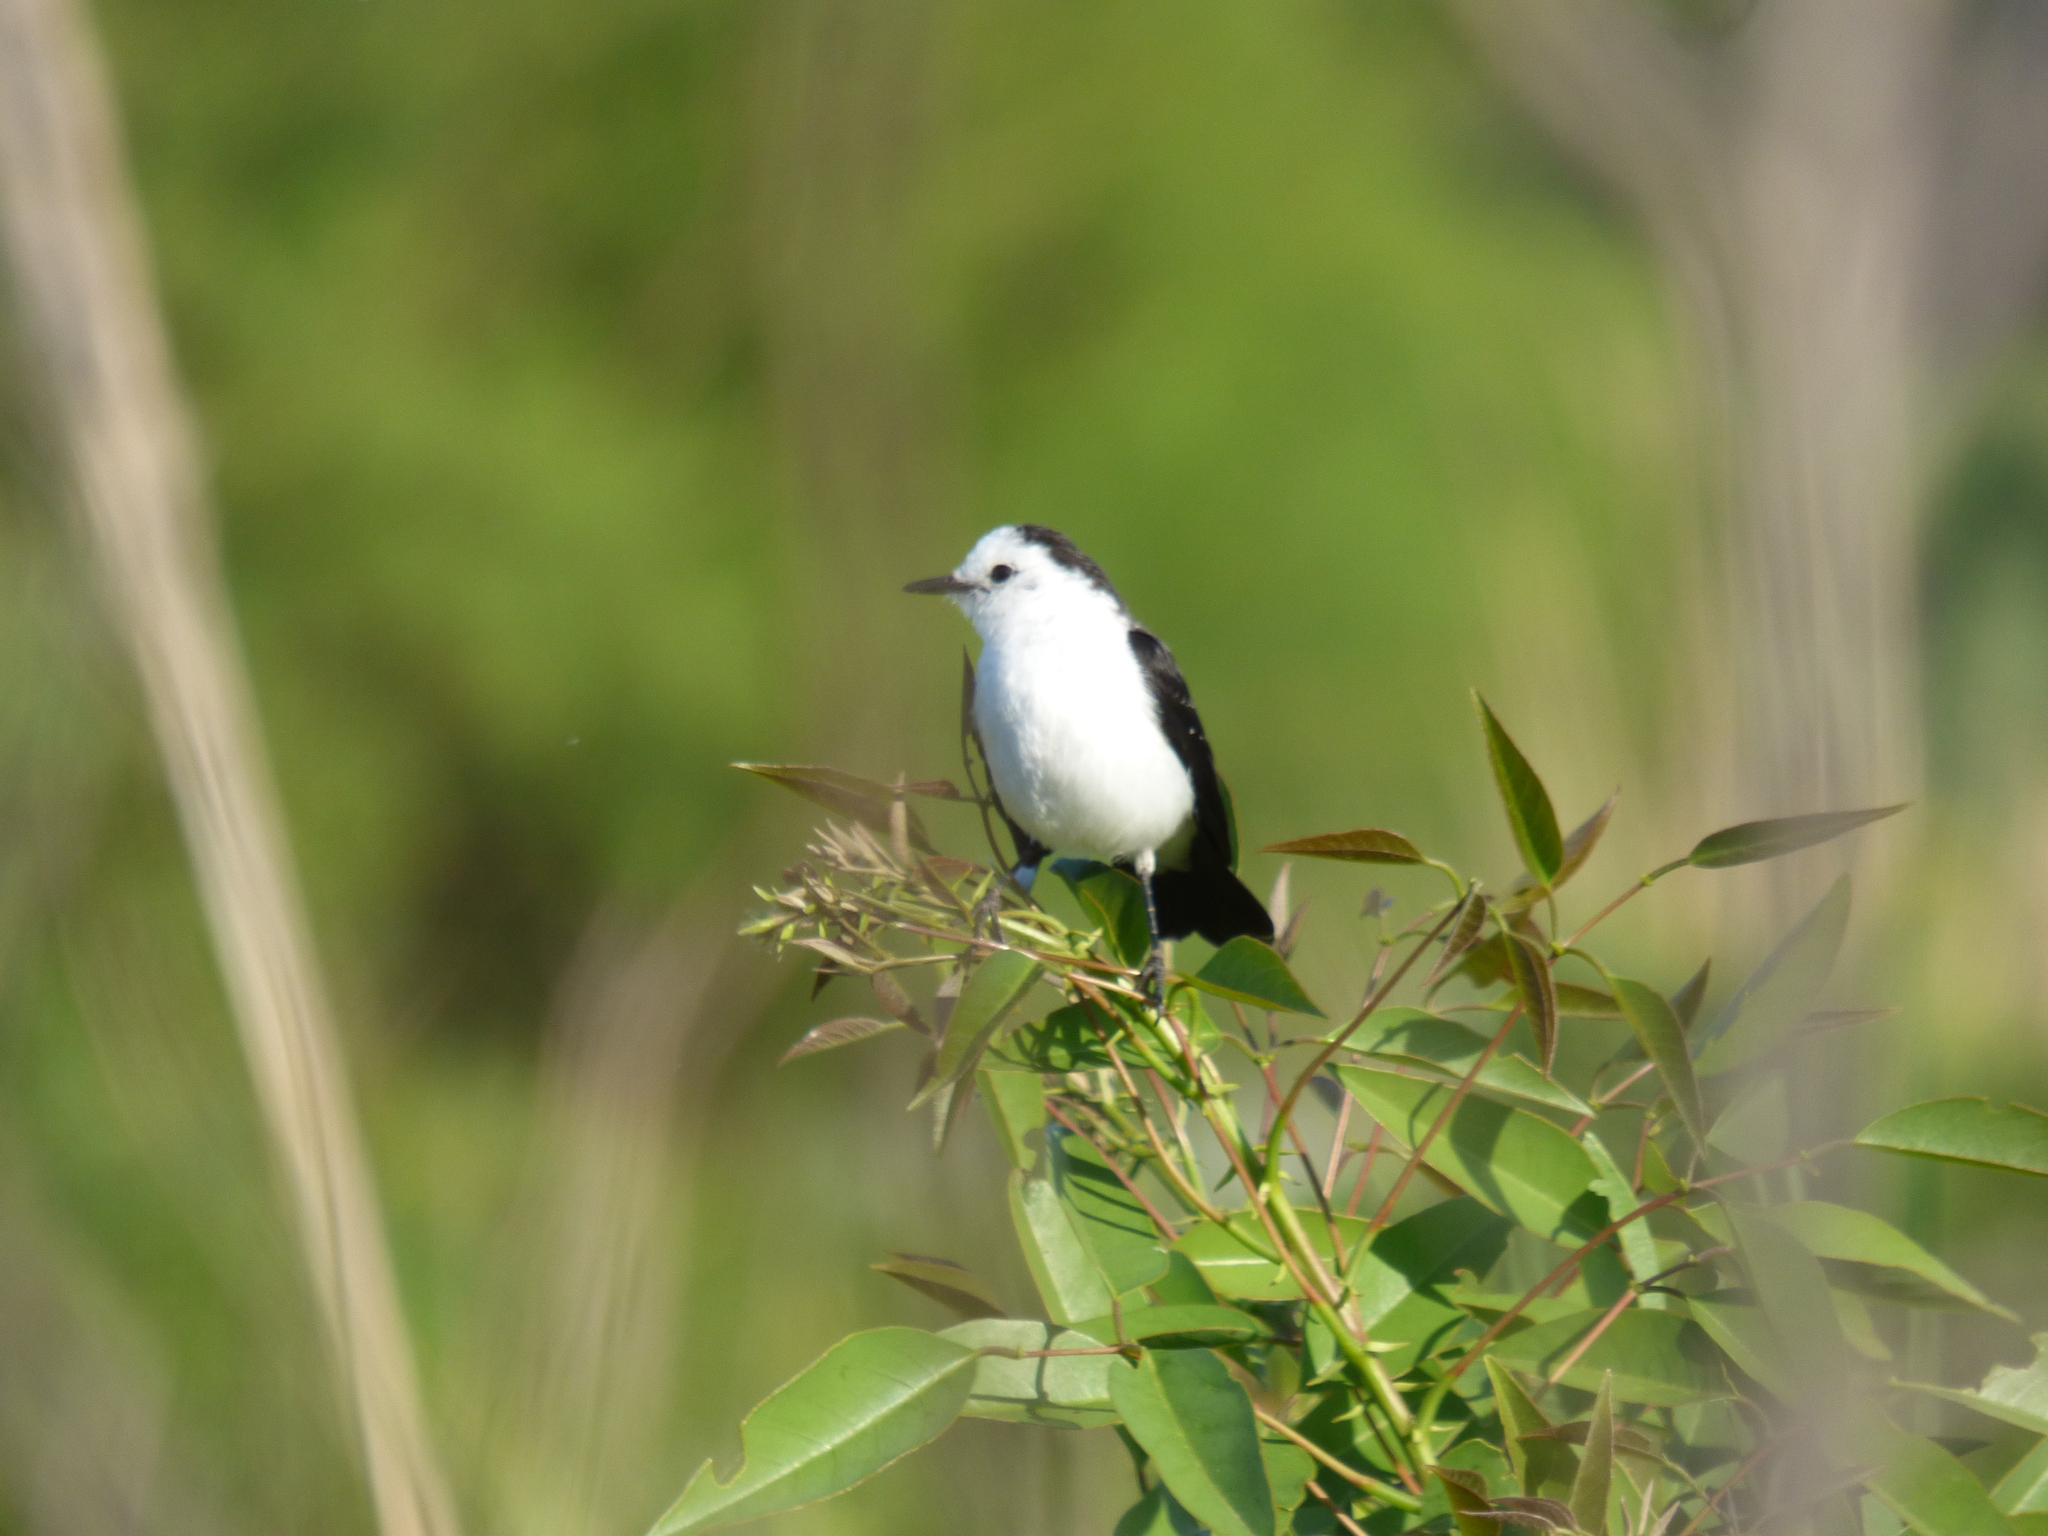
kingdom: Animalia
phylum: Chordata
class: Aves
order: Passeriformes
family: Tyrannidae
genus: Fluvicola
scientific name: Fluvicola pica
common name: Pied water-tyrant
